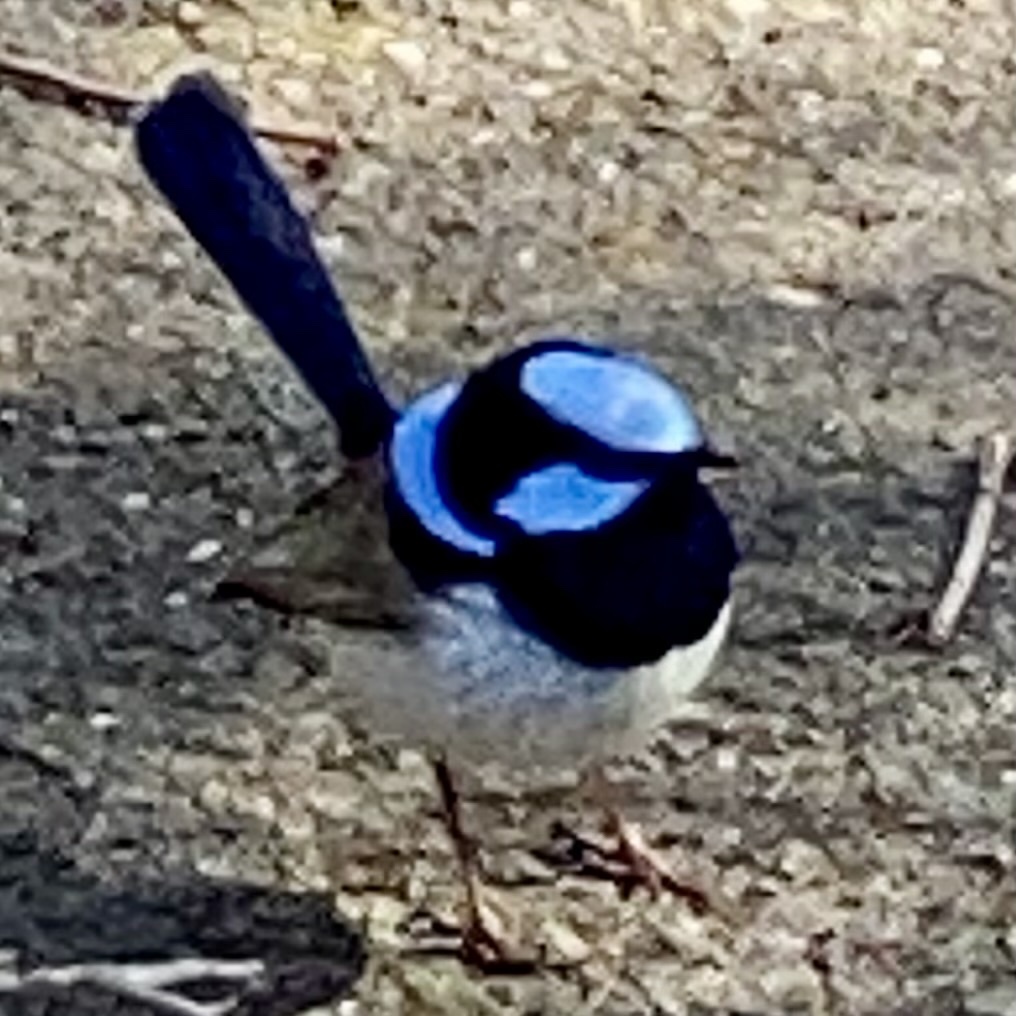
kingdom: Animalia
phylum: Chordata
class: Aves
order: Passeriformes
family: Maluridae
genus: Malurus
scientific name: Malurus cyaneus
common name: Superb fairywren
